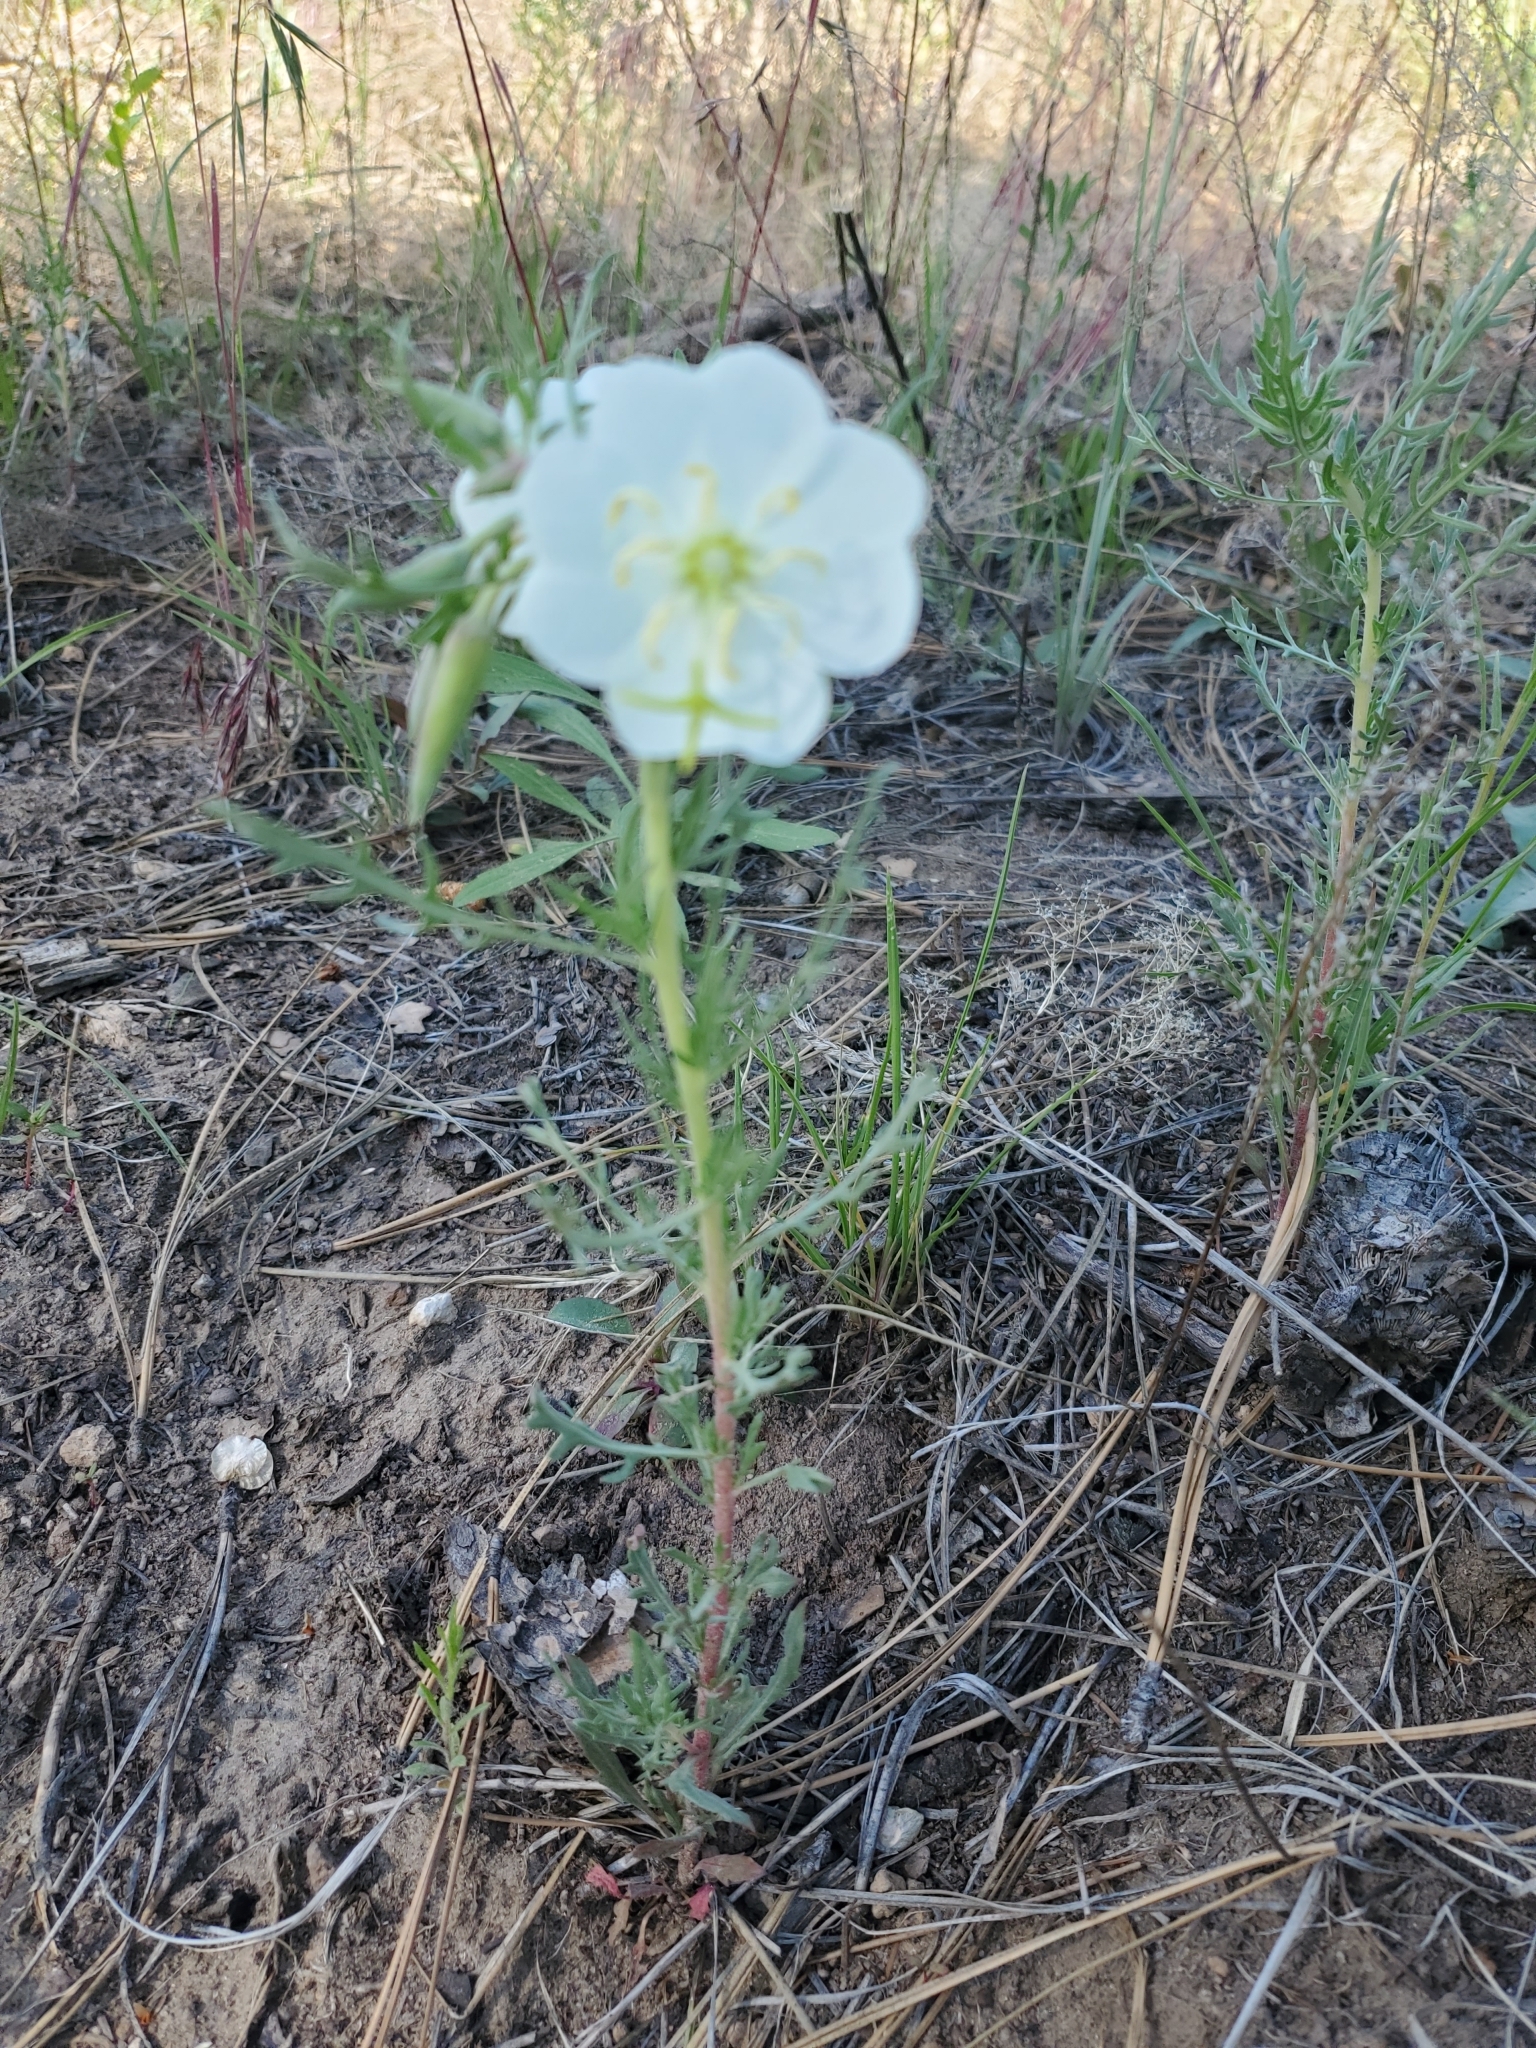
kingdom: Plantae
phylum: Tracheophyta
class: Magnoliopsida
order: Myrtales
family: Onagraceae
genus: Oenothera
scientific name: Oenothera coronopifolia
